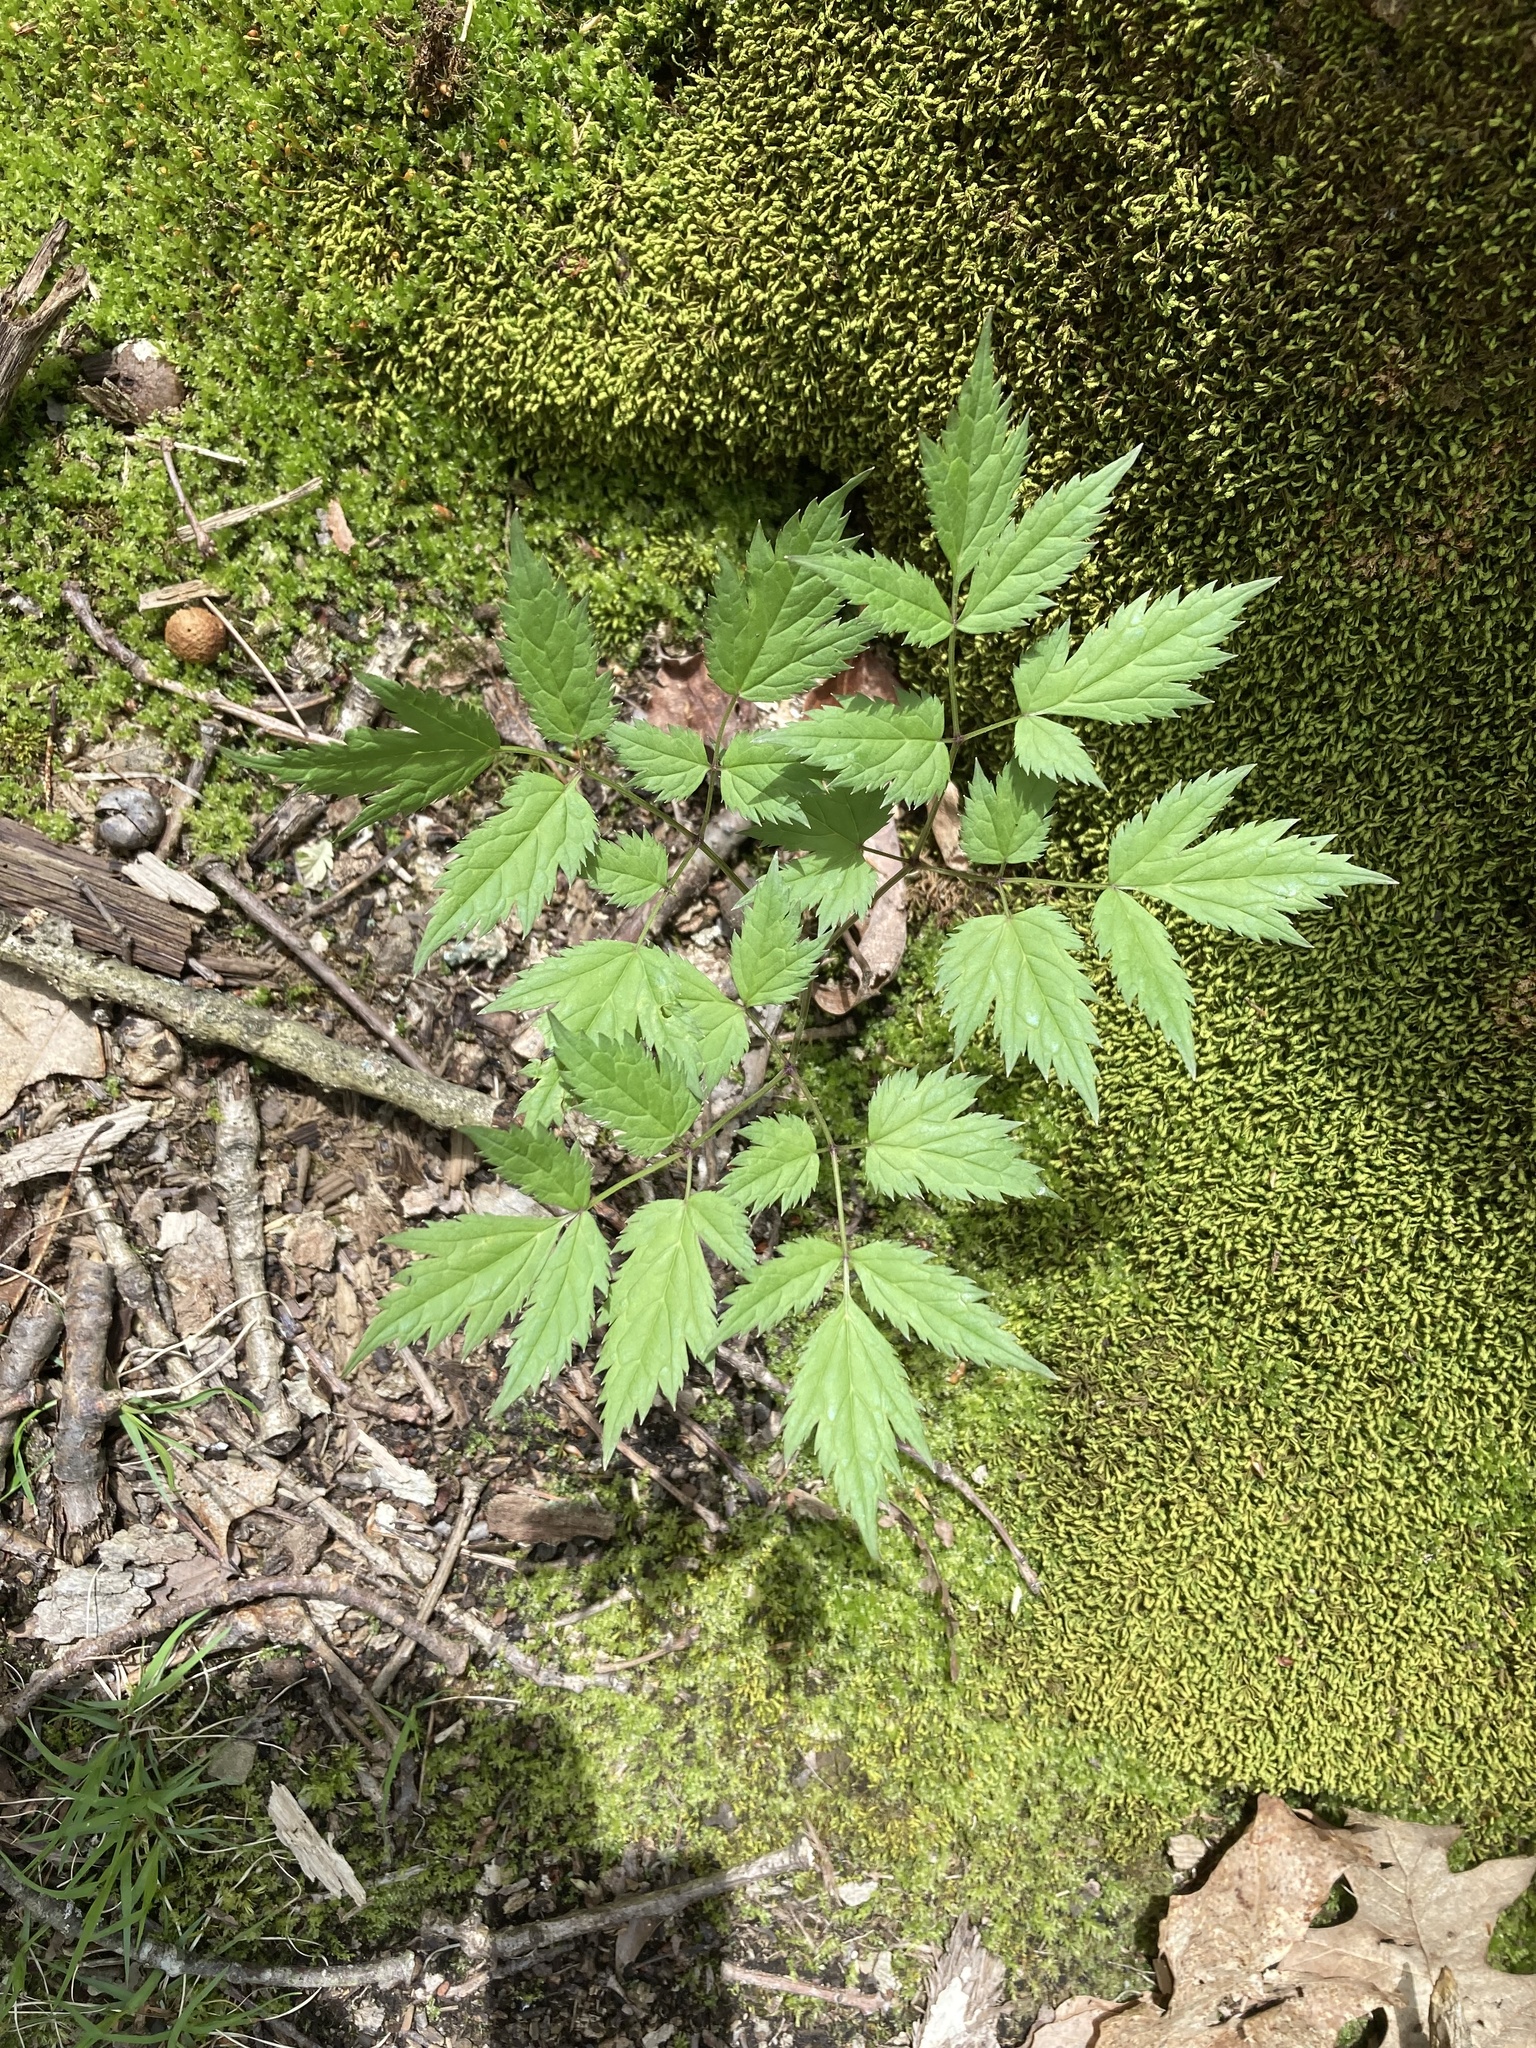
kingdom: Plantae
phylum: Tracheophyta
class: Magnoliopsida
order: Ranunculales
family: Ranunculaceae
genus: Actaea
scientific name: Actaea racemosa
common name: Black cohosh
